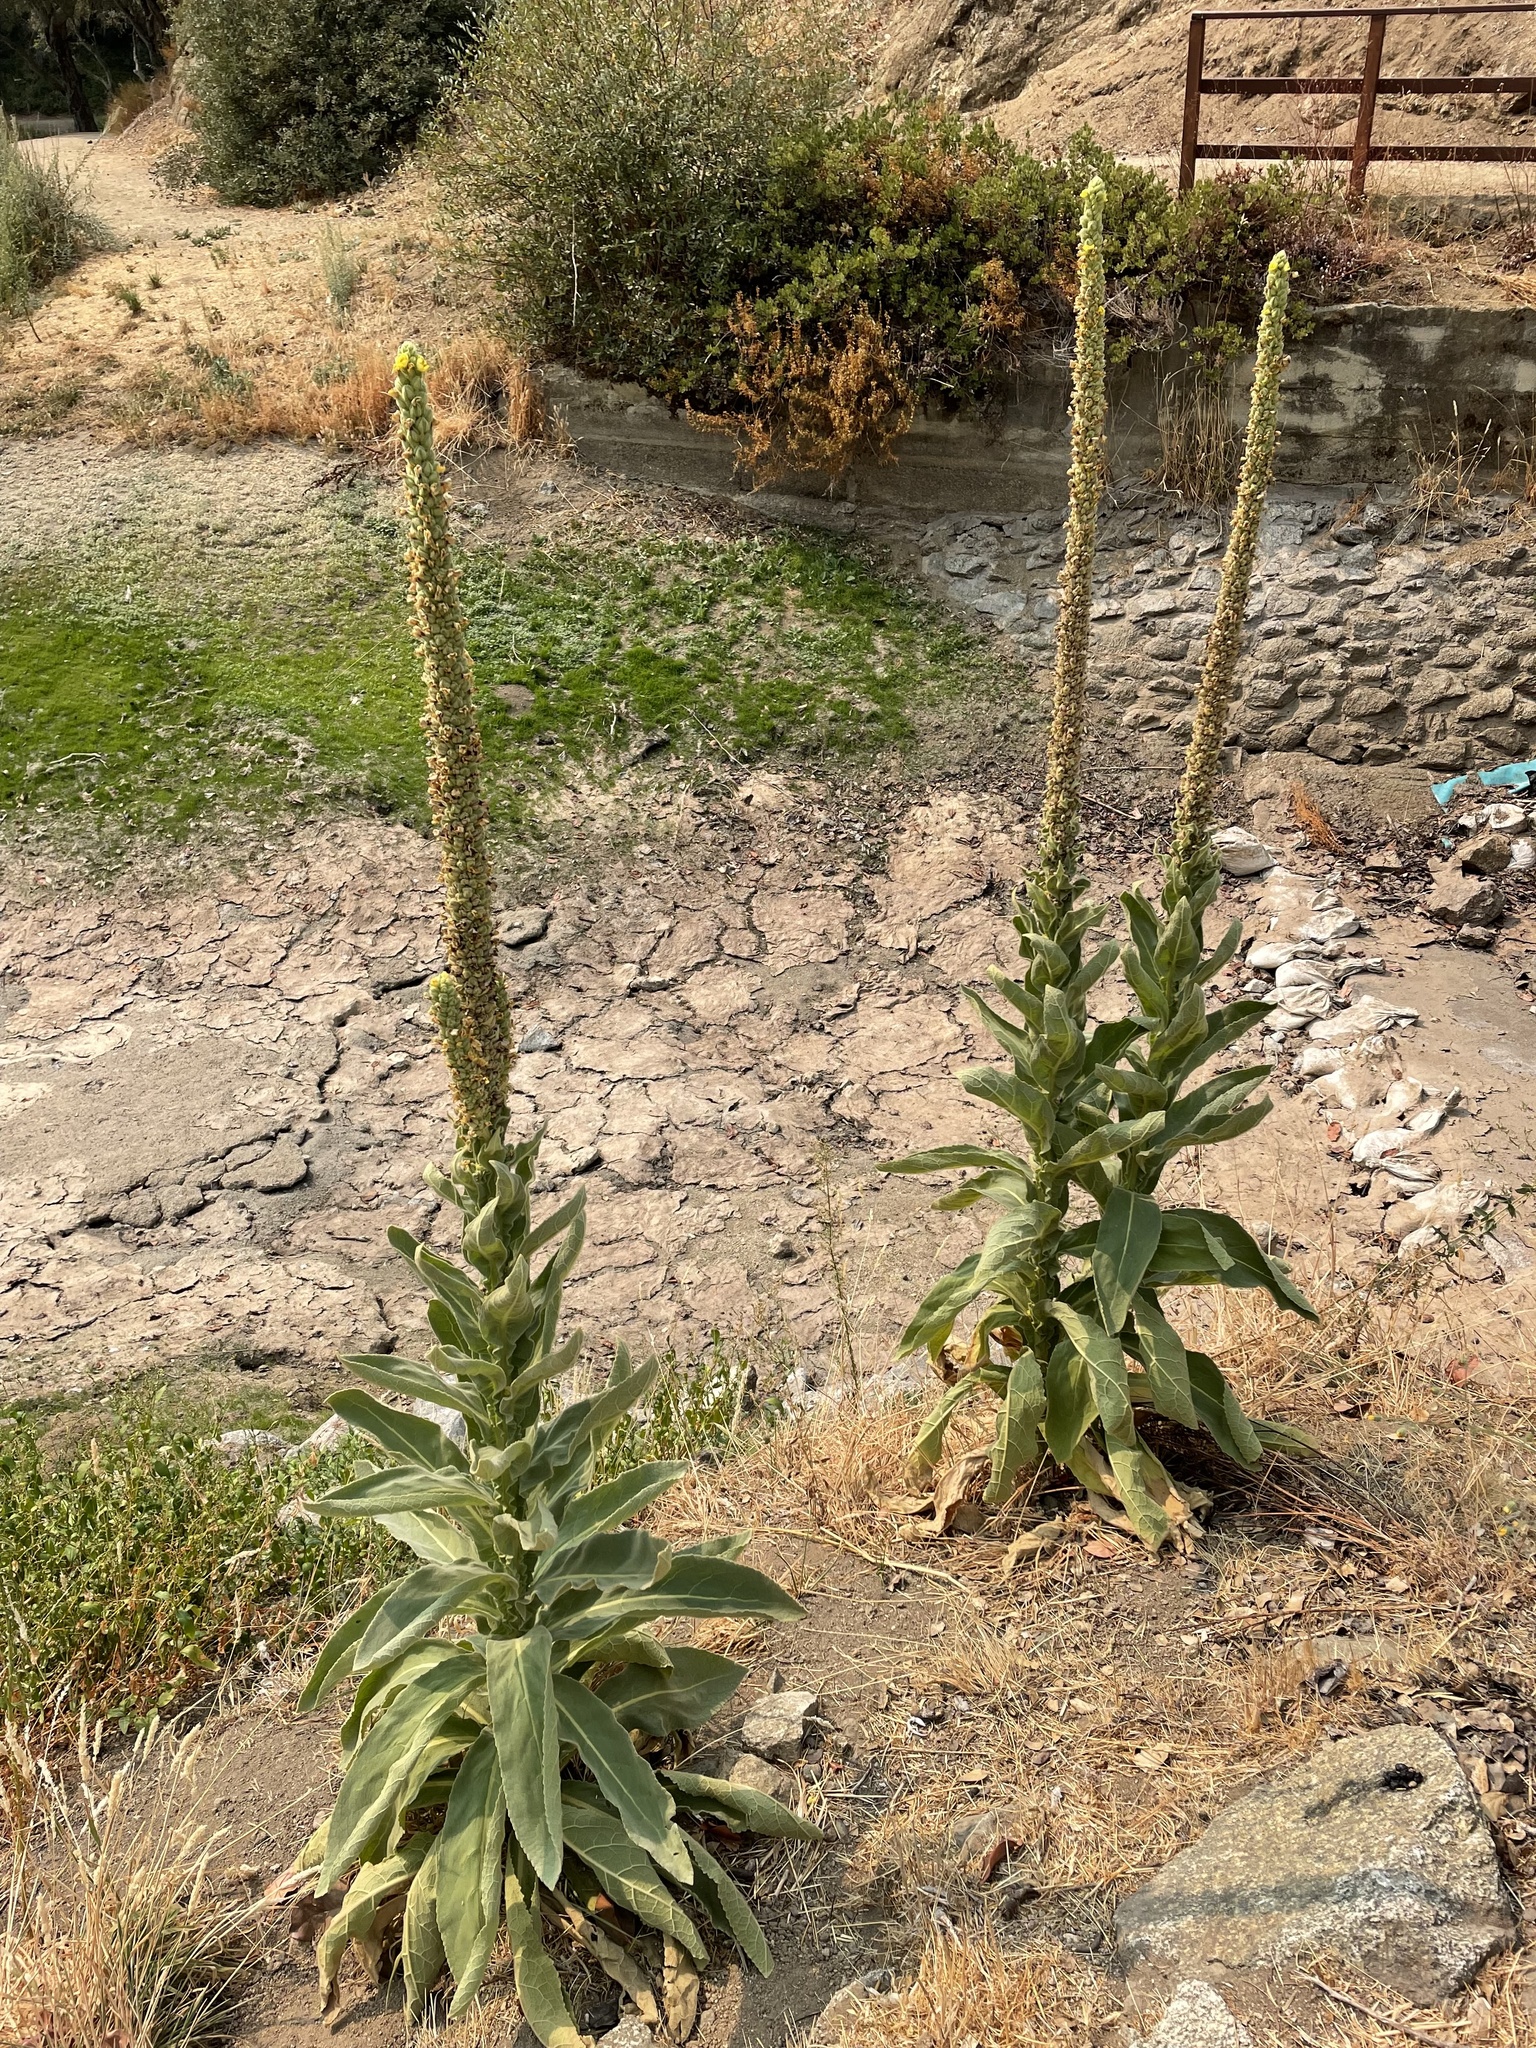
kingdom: Plantae
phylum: Tracheophyta
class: Magnoliopsida
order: Lamiales
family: Scrophulariaceae
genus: Verbascum
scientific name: Verbascum thapsus
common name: Common mullein
